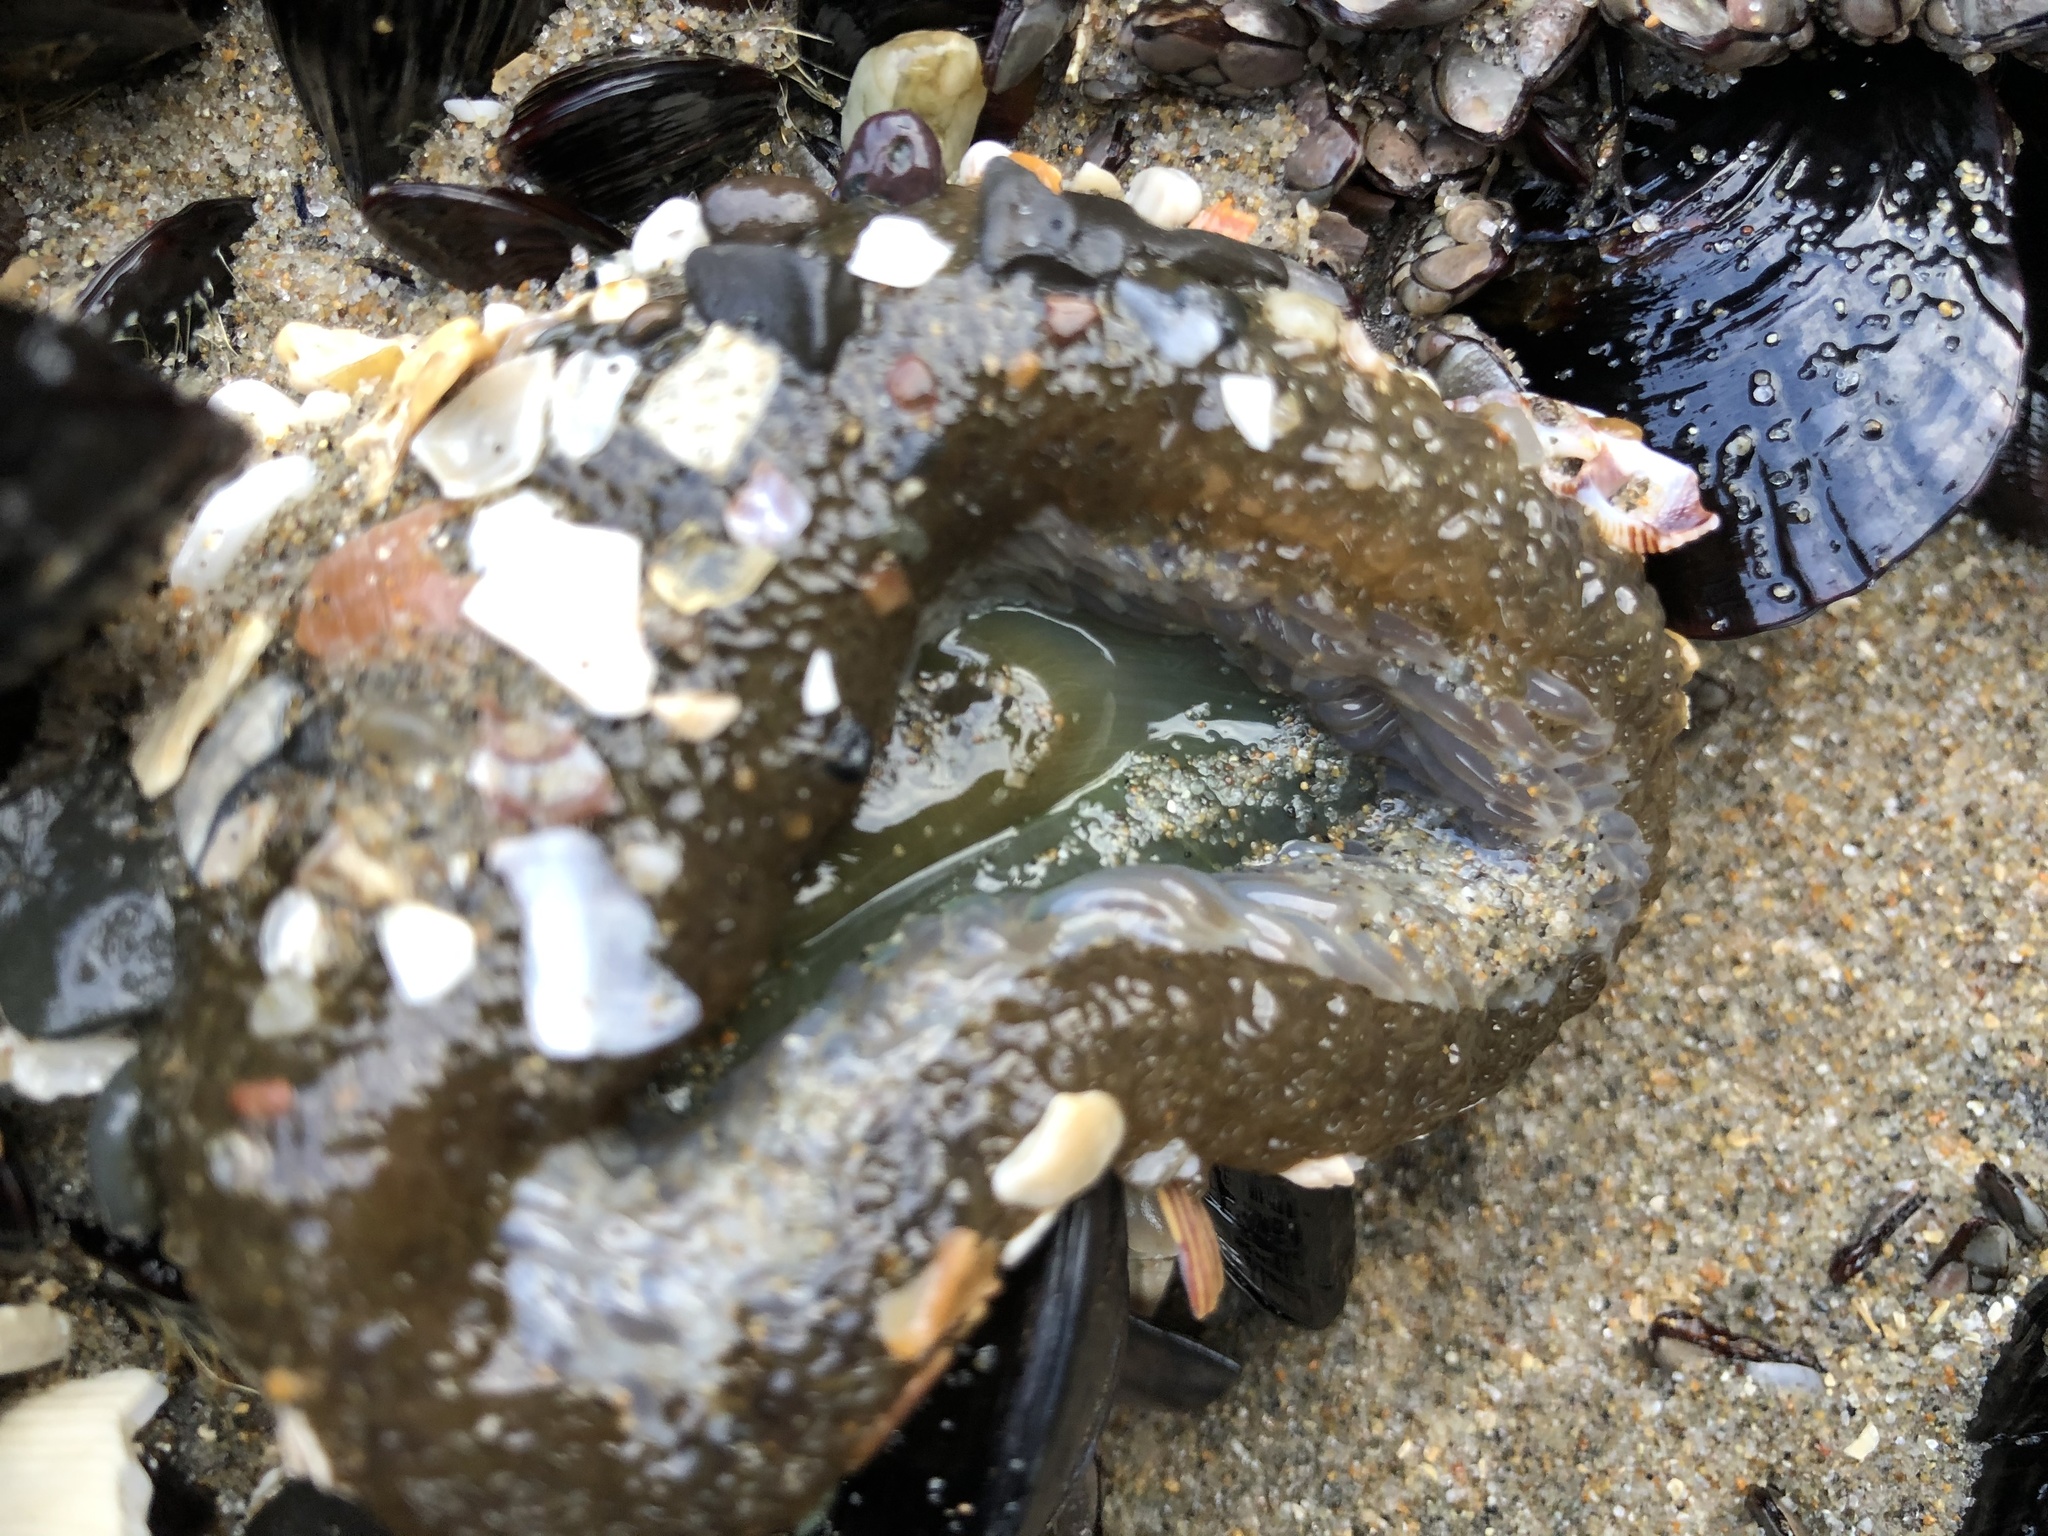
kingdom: Animalia
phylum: Cnidaria
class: Anthozoa
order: Actiniaria
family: Actiniidae
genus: Anthopleura
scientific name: Anthopleura xanthogrammica
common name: Giant green anemone
